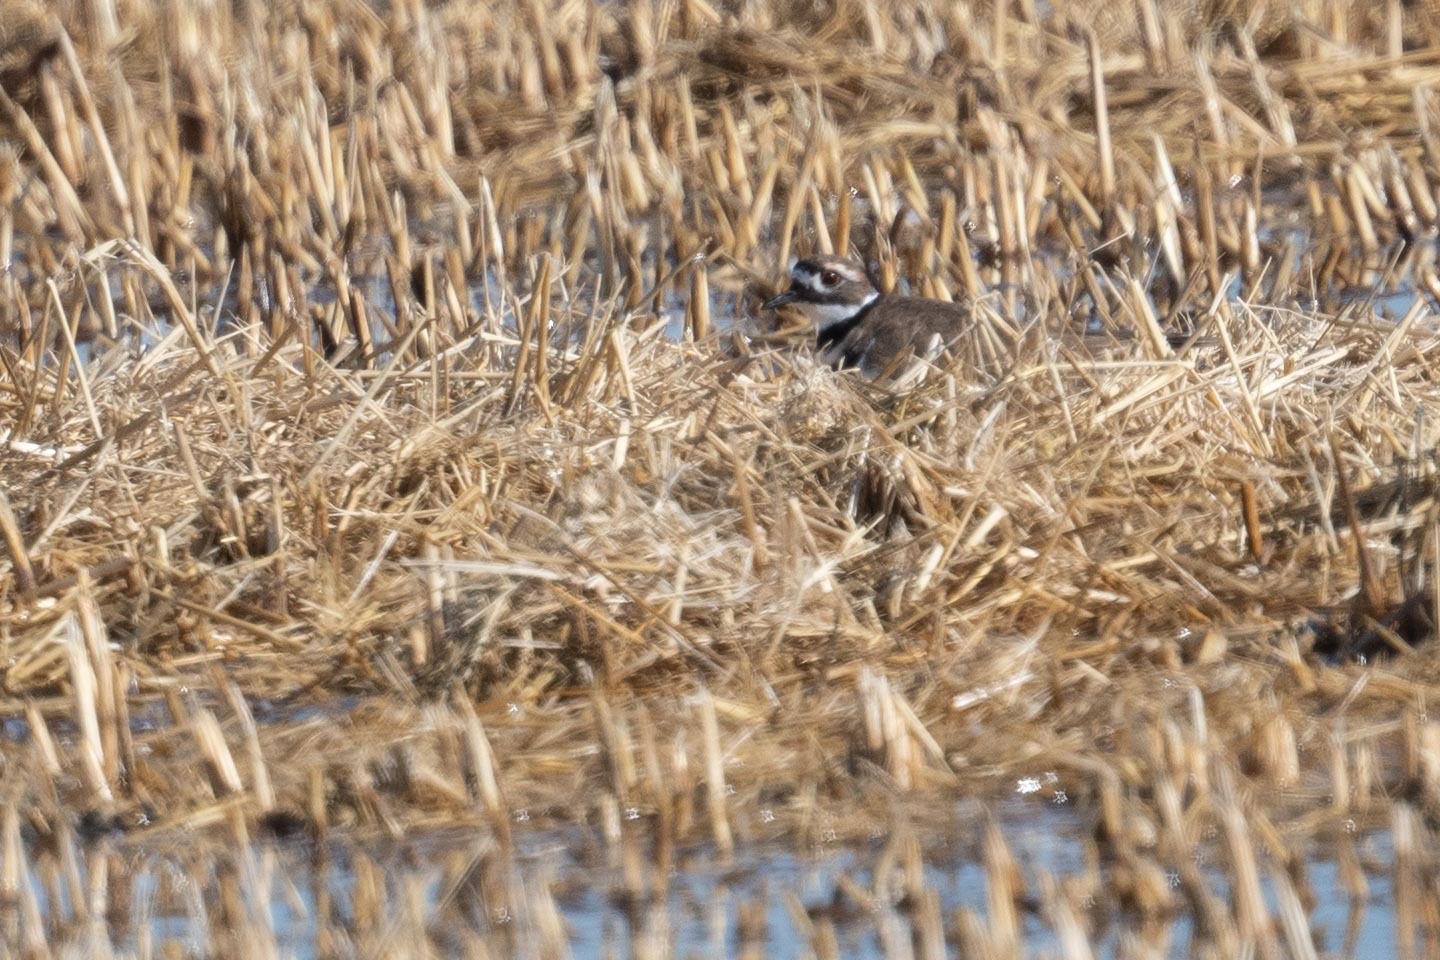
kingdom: Animalia
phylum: Chordata
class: Aves
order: Charadriiformes
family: Charadriidae
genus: Charadrius
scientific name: Charadrius vociferus
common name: Killdeer
